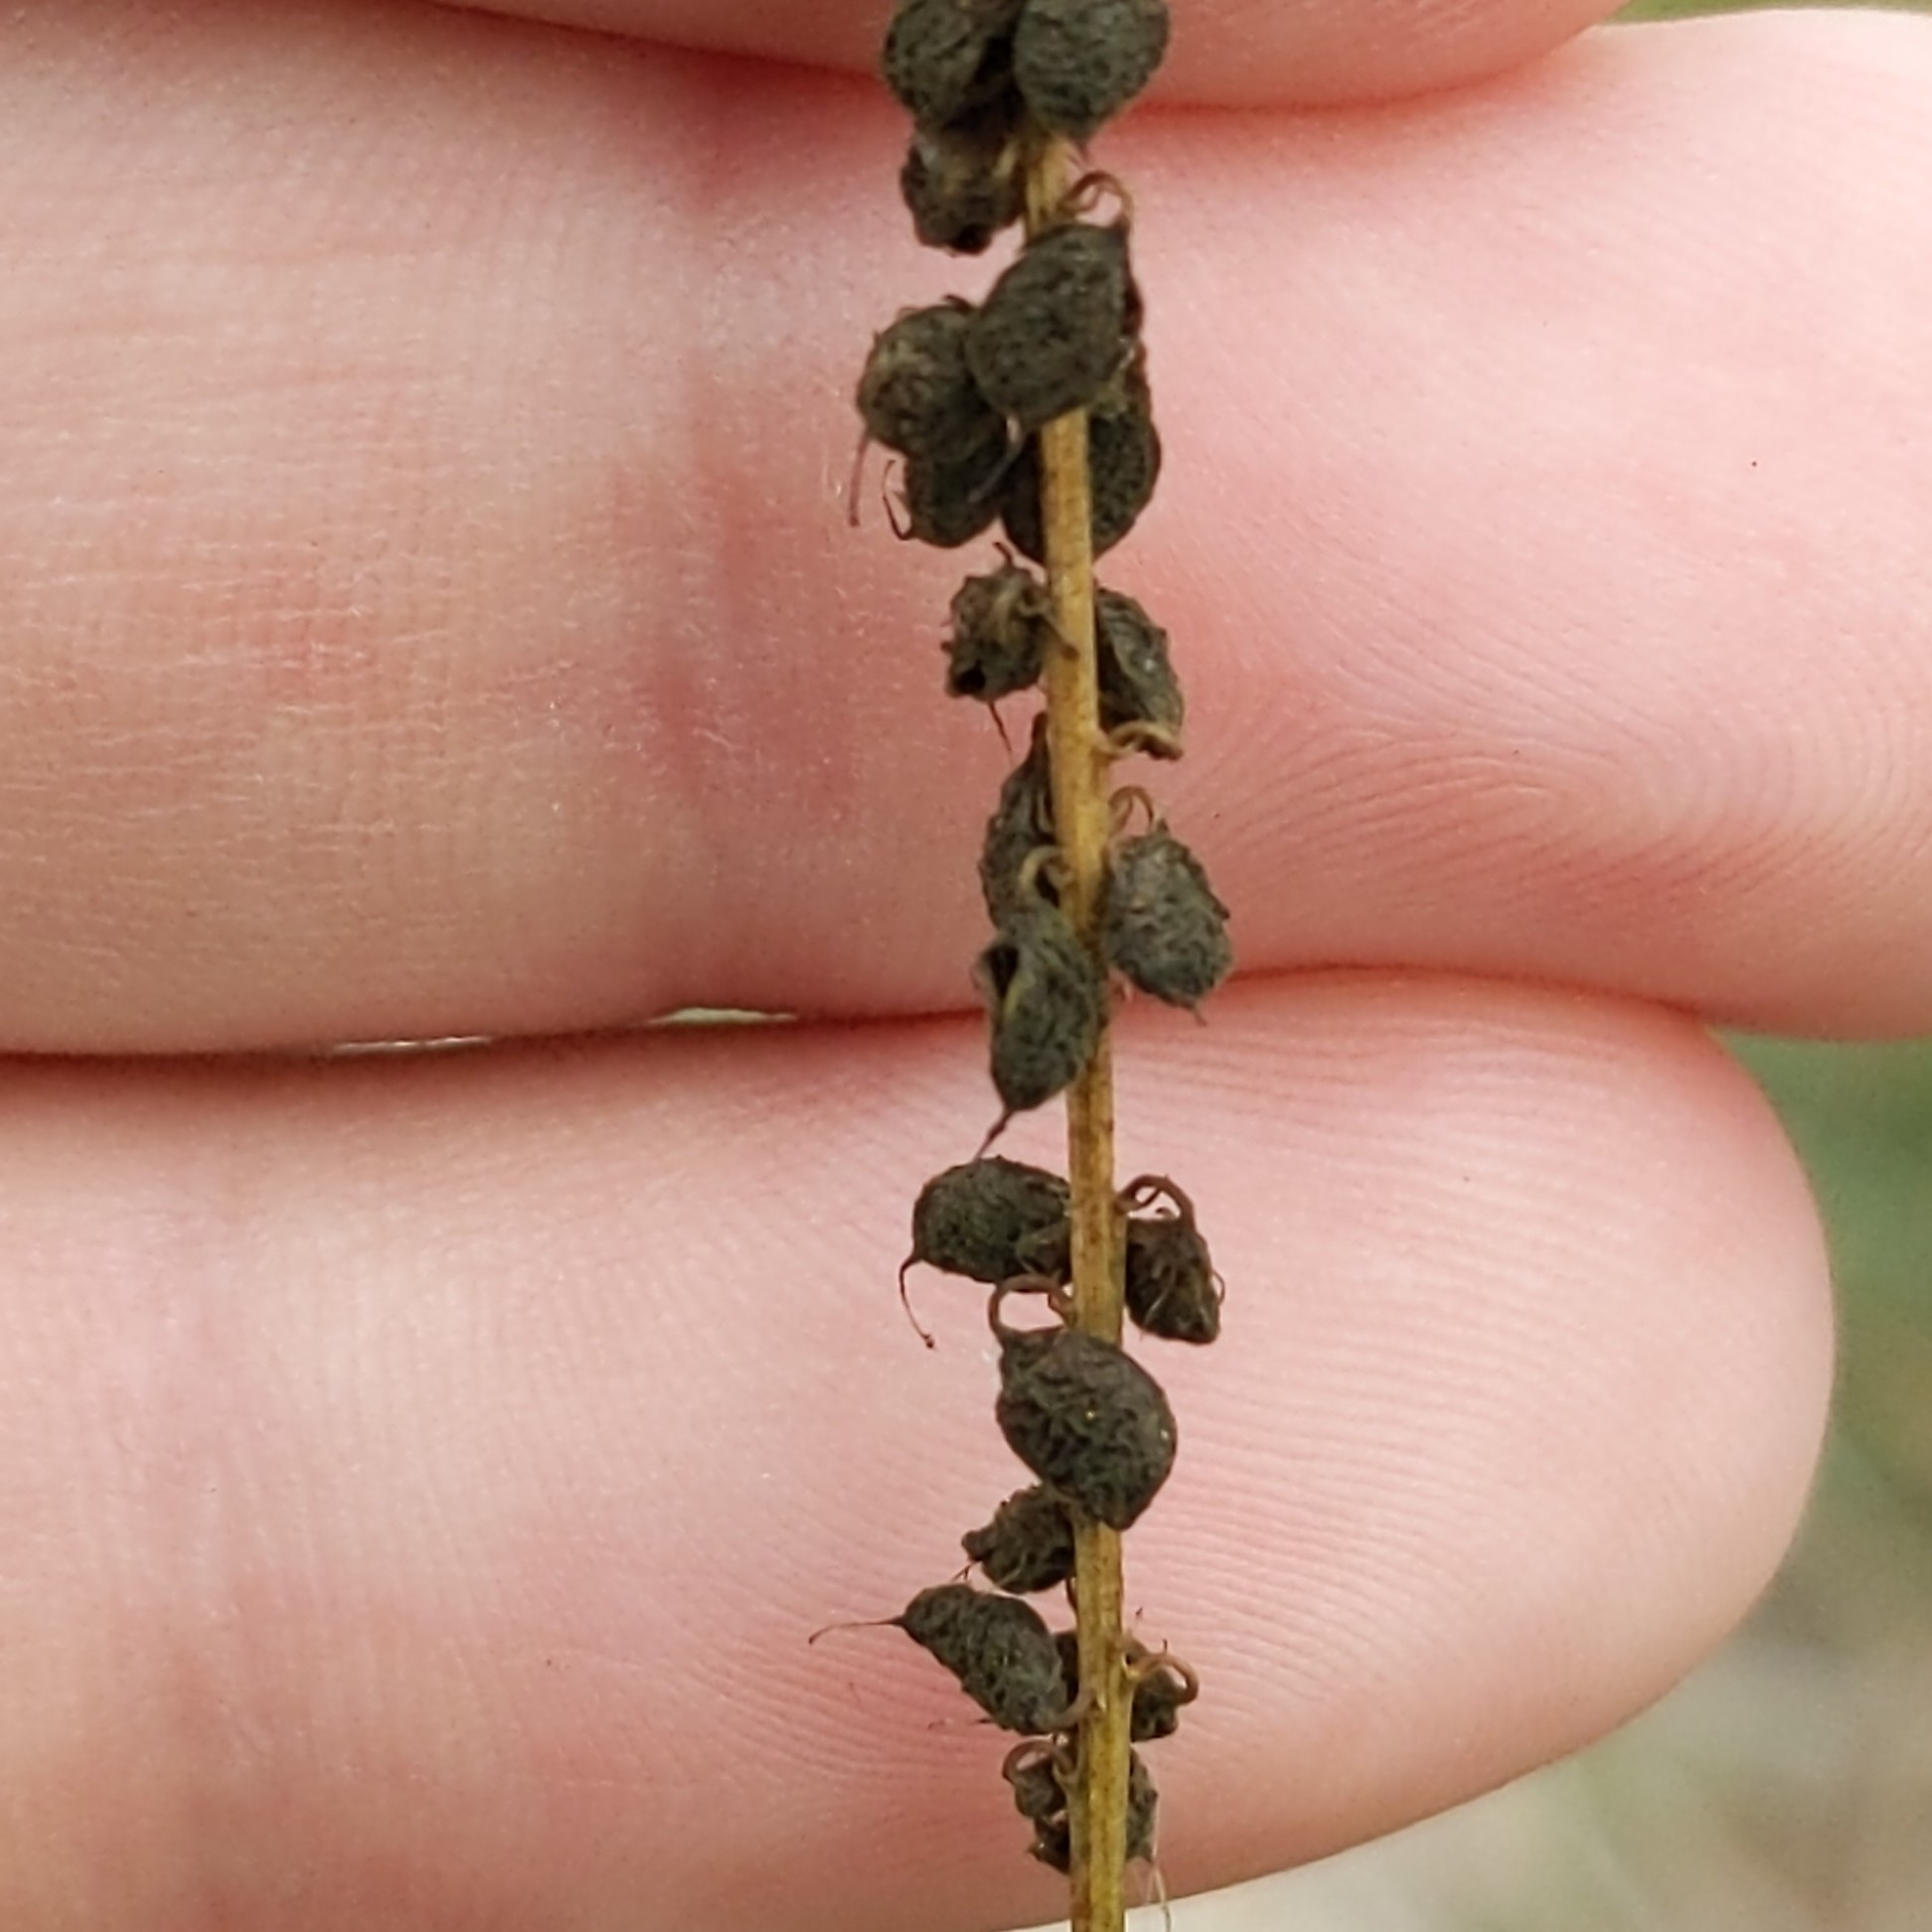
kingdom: Plantae
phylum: Tracheophyta
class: Magnoliopsida
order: Fabales
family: Fabaceae
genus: Melilotus
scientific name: Melilotus albus
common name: White melilot
